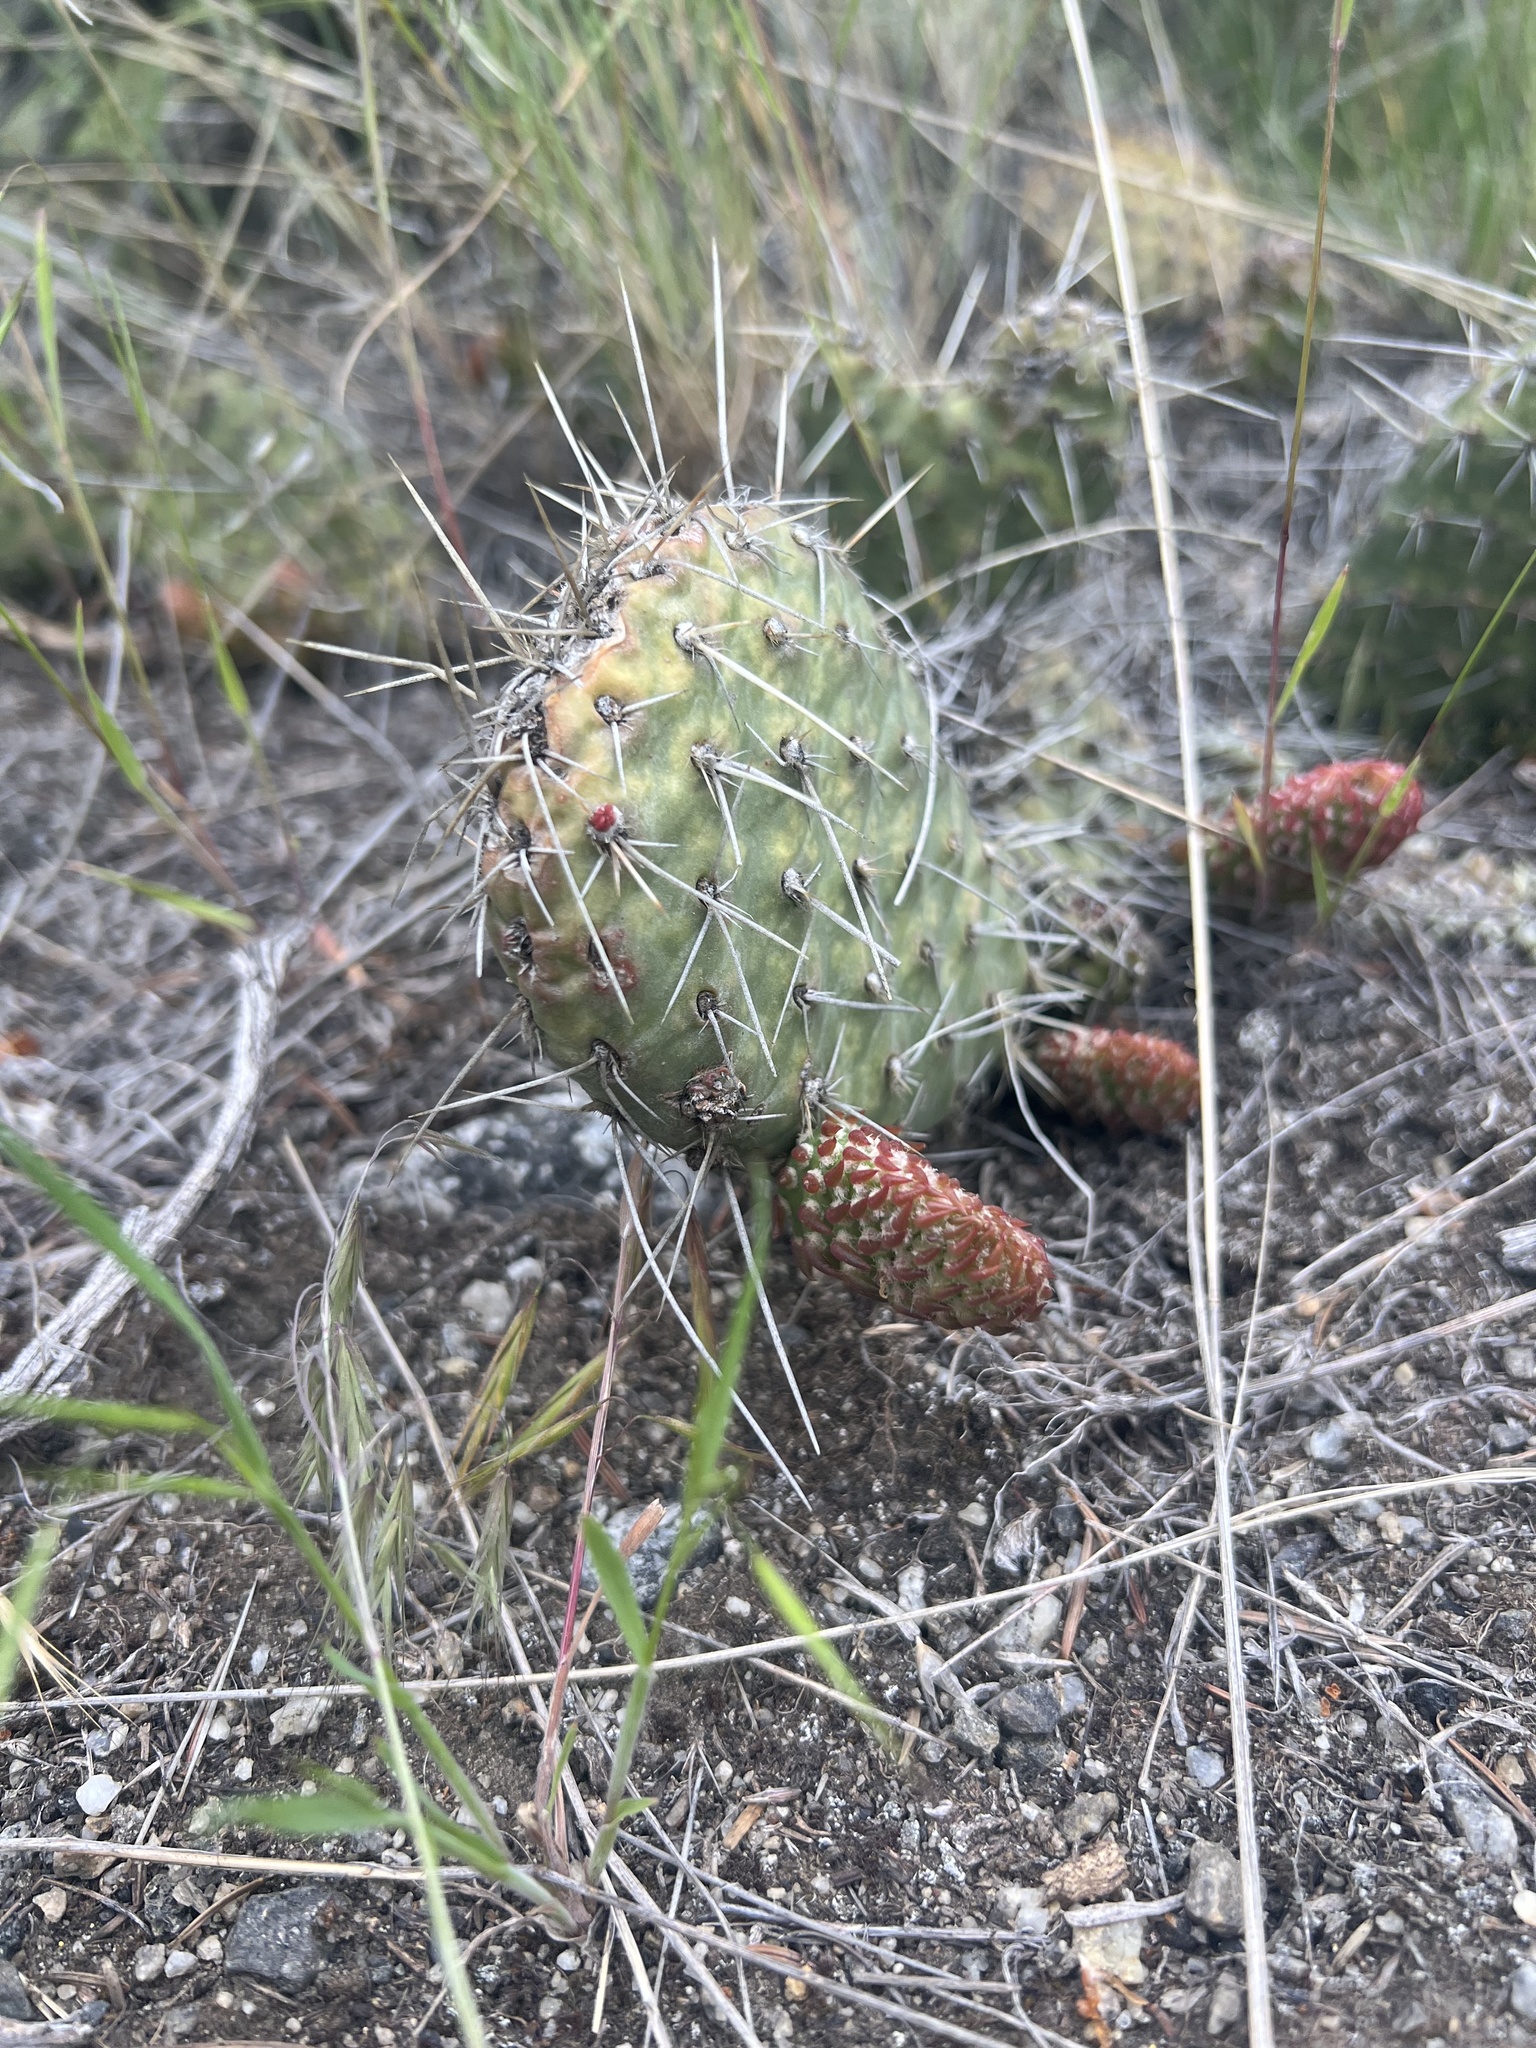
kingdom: Plantae
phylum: Tracheophyta
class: Magnoliopsida
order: Caryophyllales
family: Cactaceae
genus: Opuntia
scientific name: Opuntia polyacantha
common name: Plains prickly-pear
